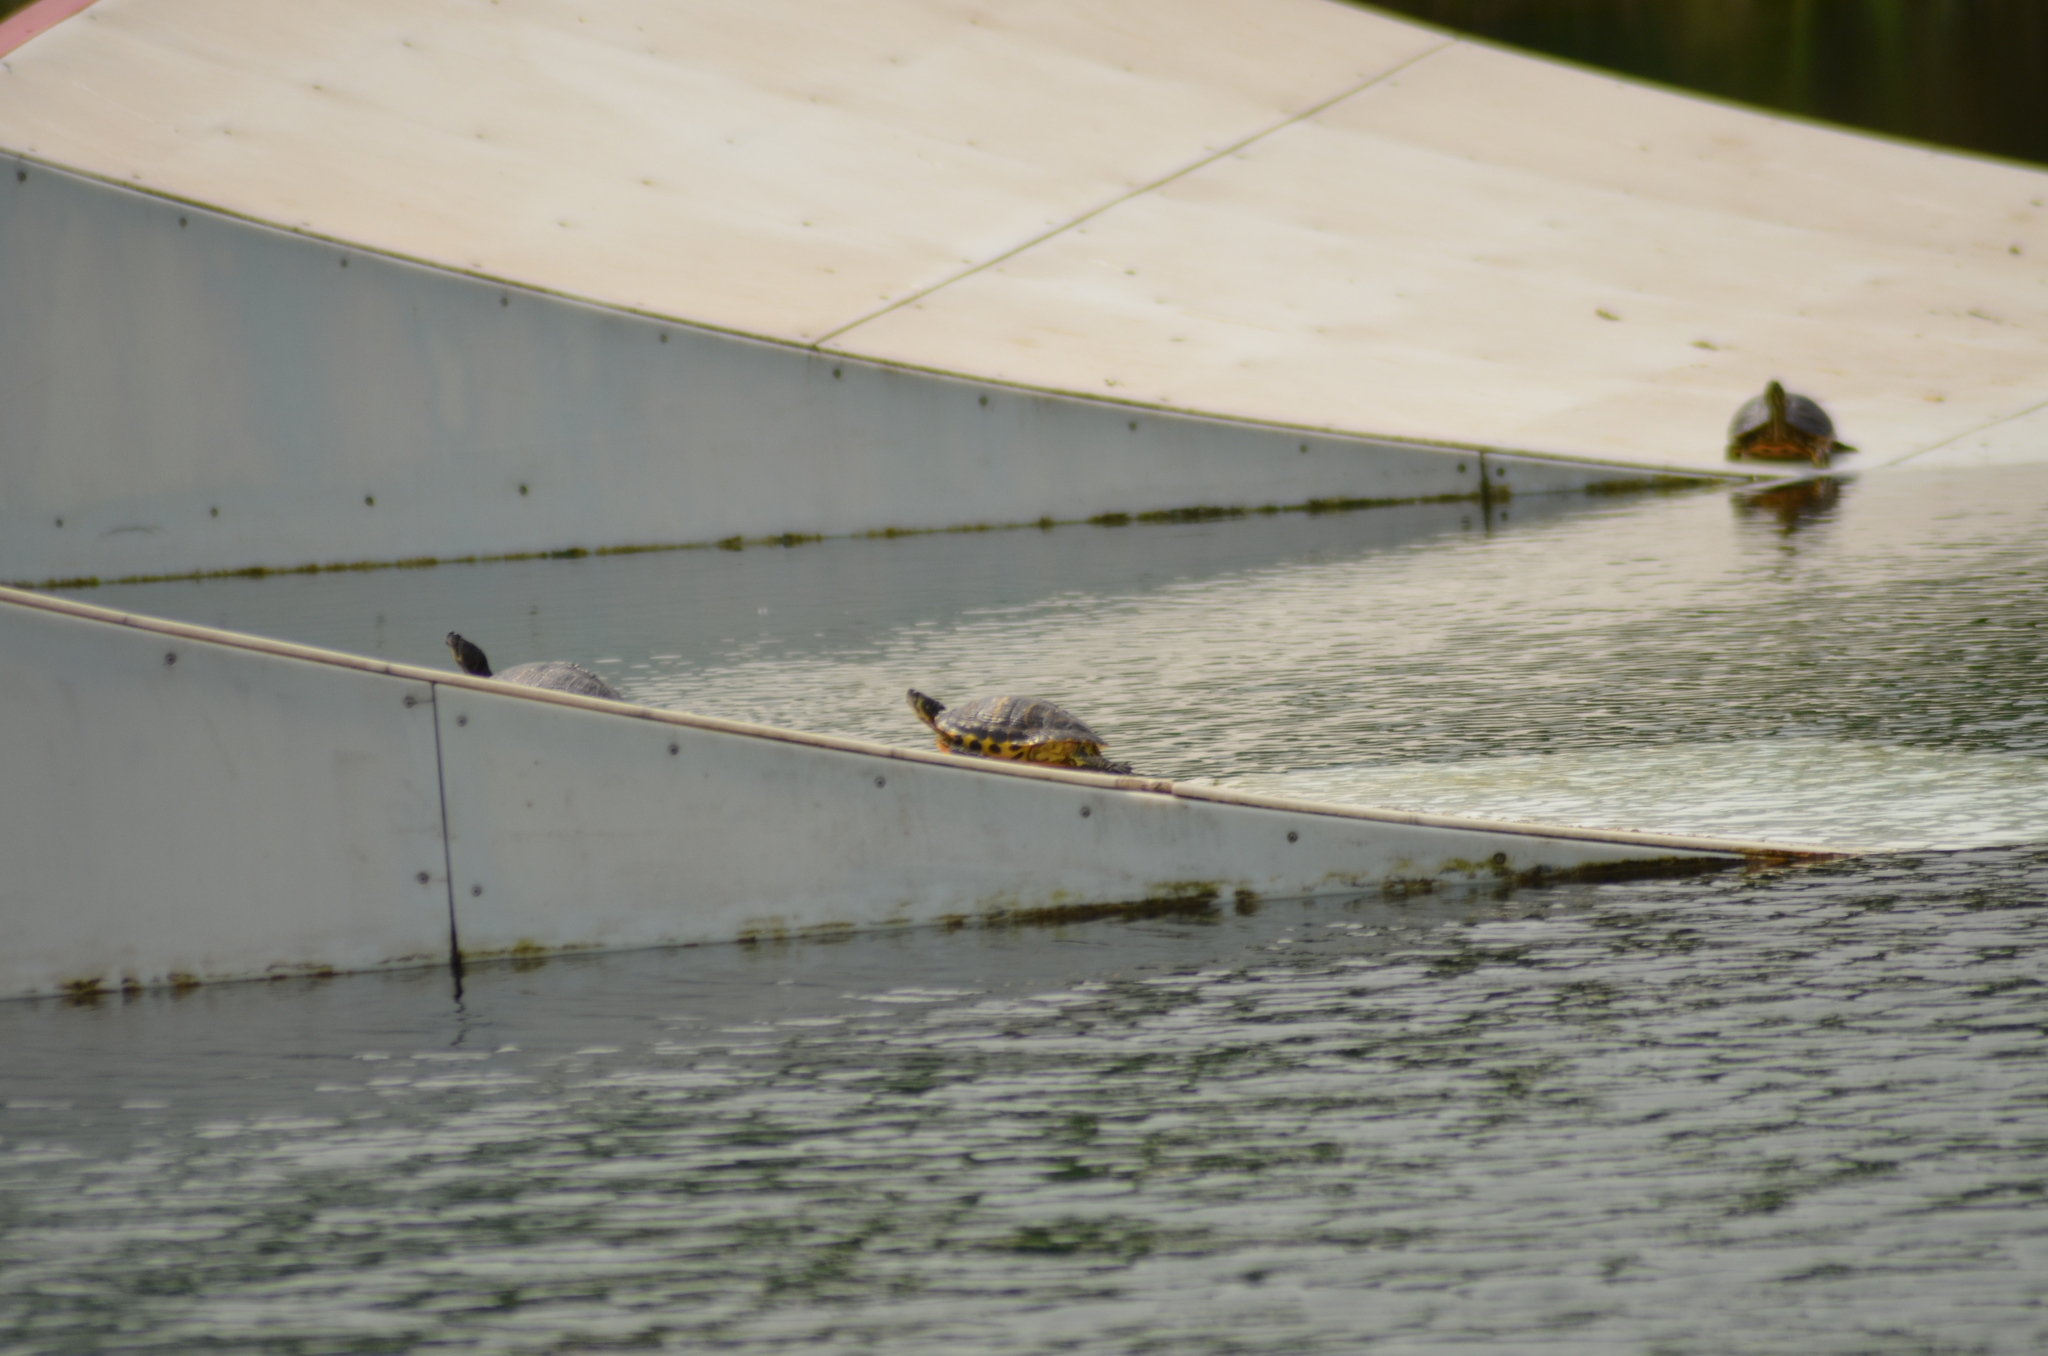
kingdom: Animalia
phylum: Chordata
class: Testudines
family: Emydidae
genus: Trachemys
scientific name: Trachemys scripta
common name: Slider
